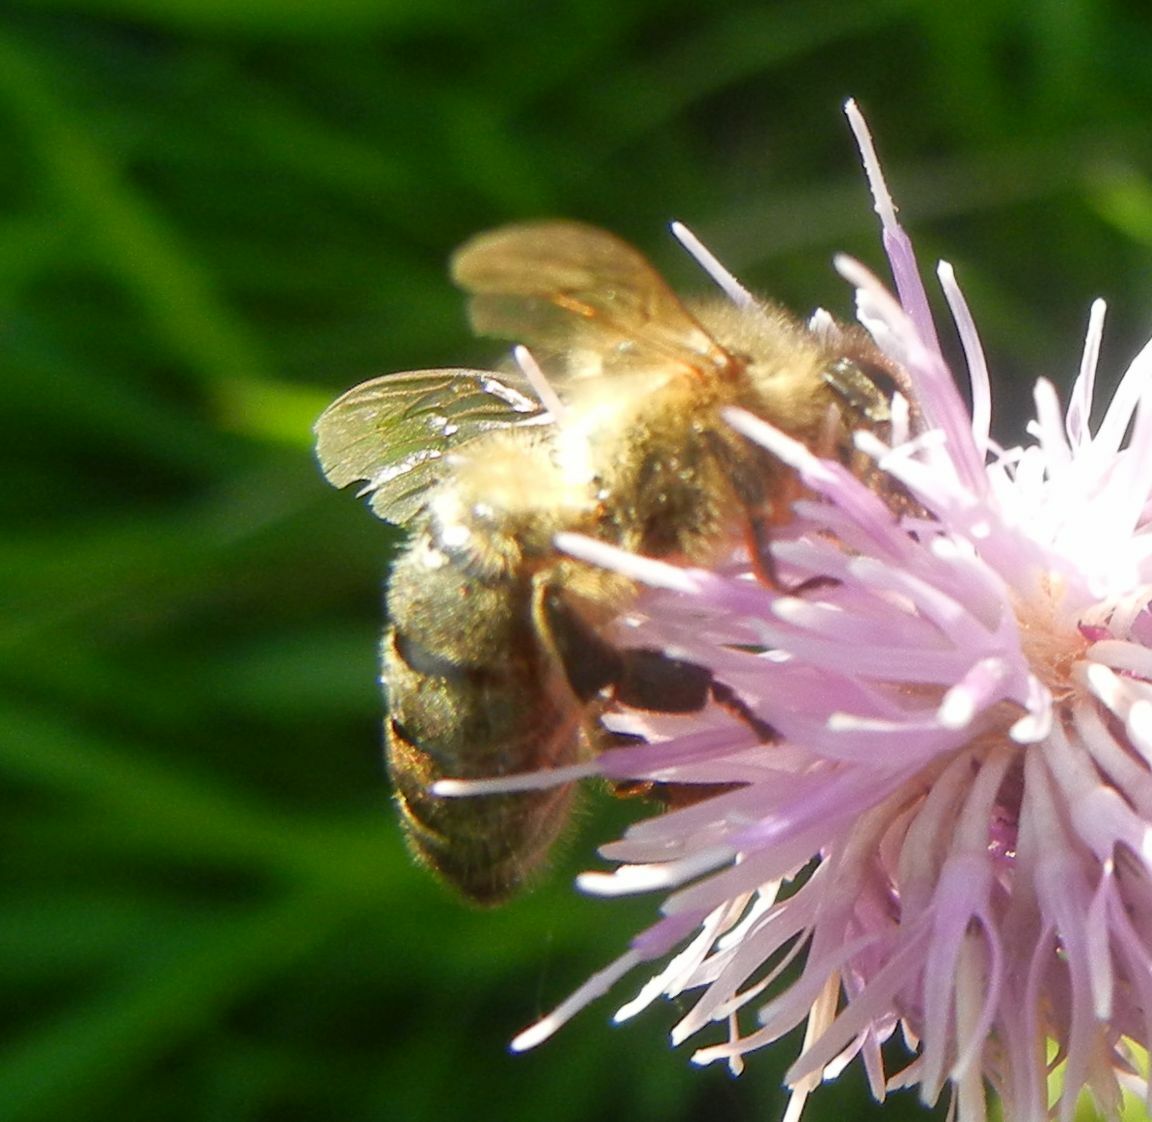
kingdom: Animalia
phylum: Arthropoda
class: Insecta
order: Hymenoptera
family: Apidae
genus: Apis
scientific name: Apis mellifera
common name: Honey bee
